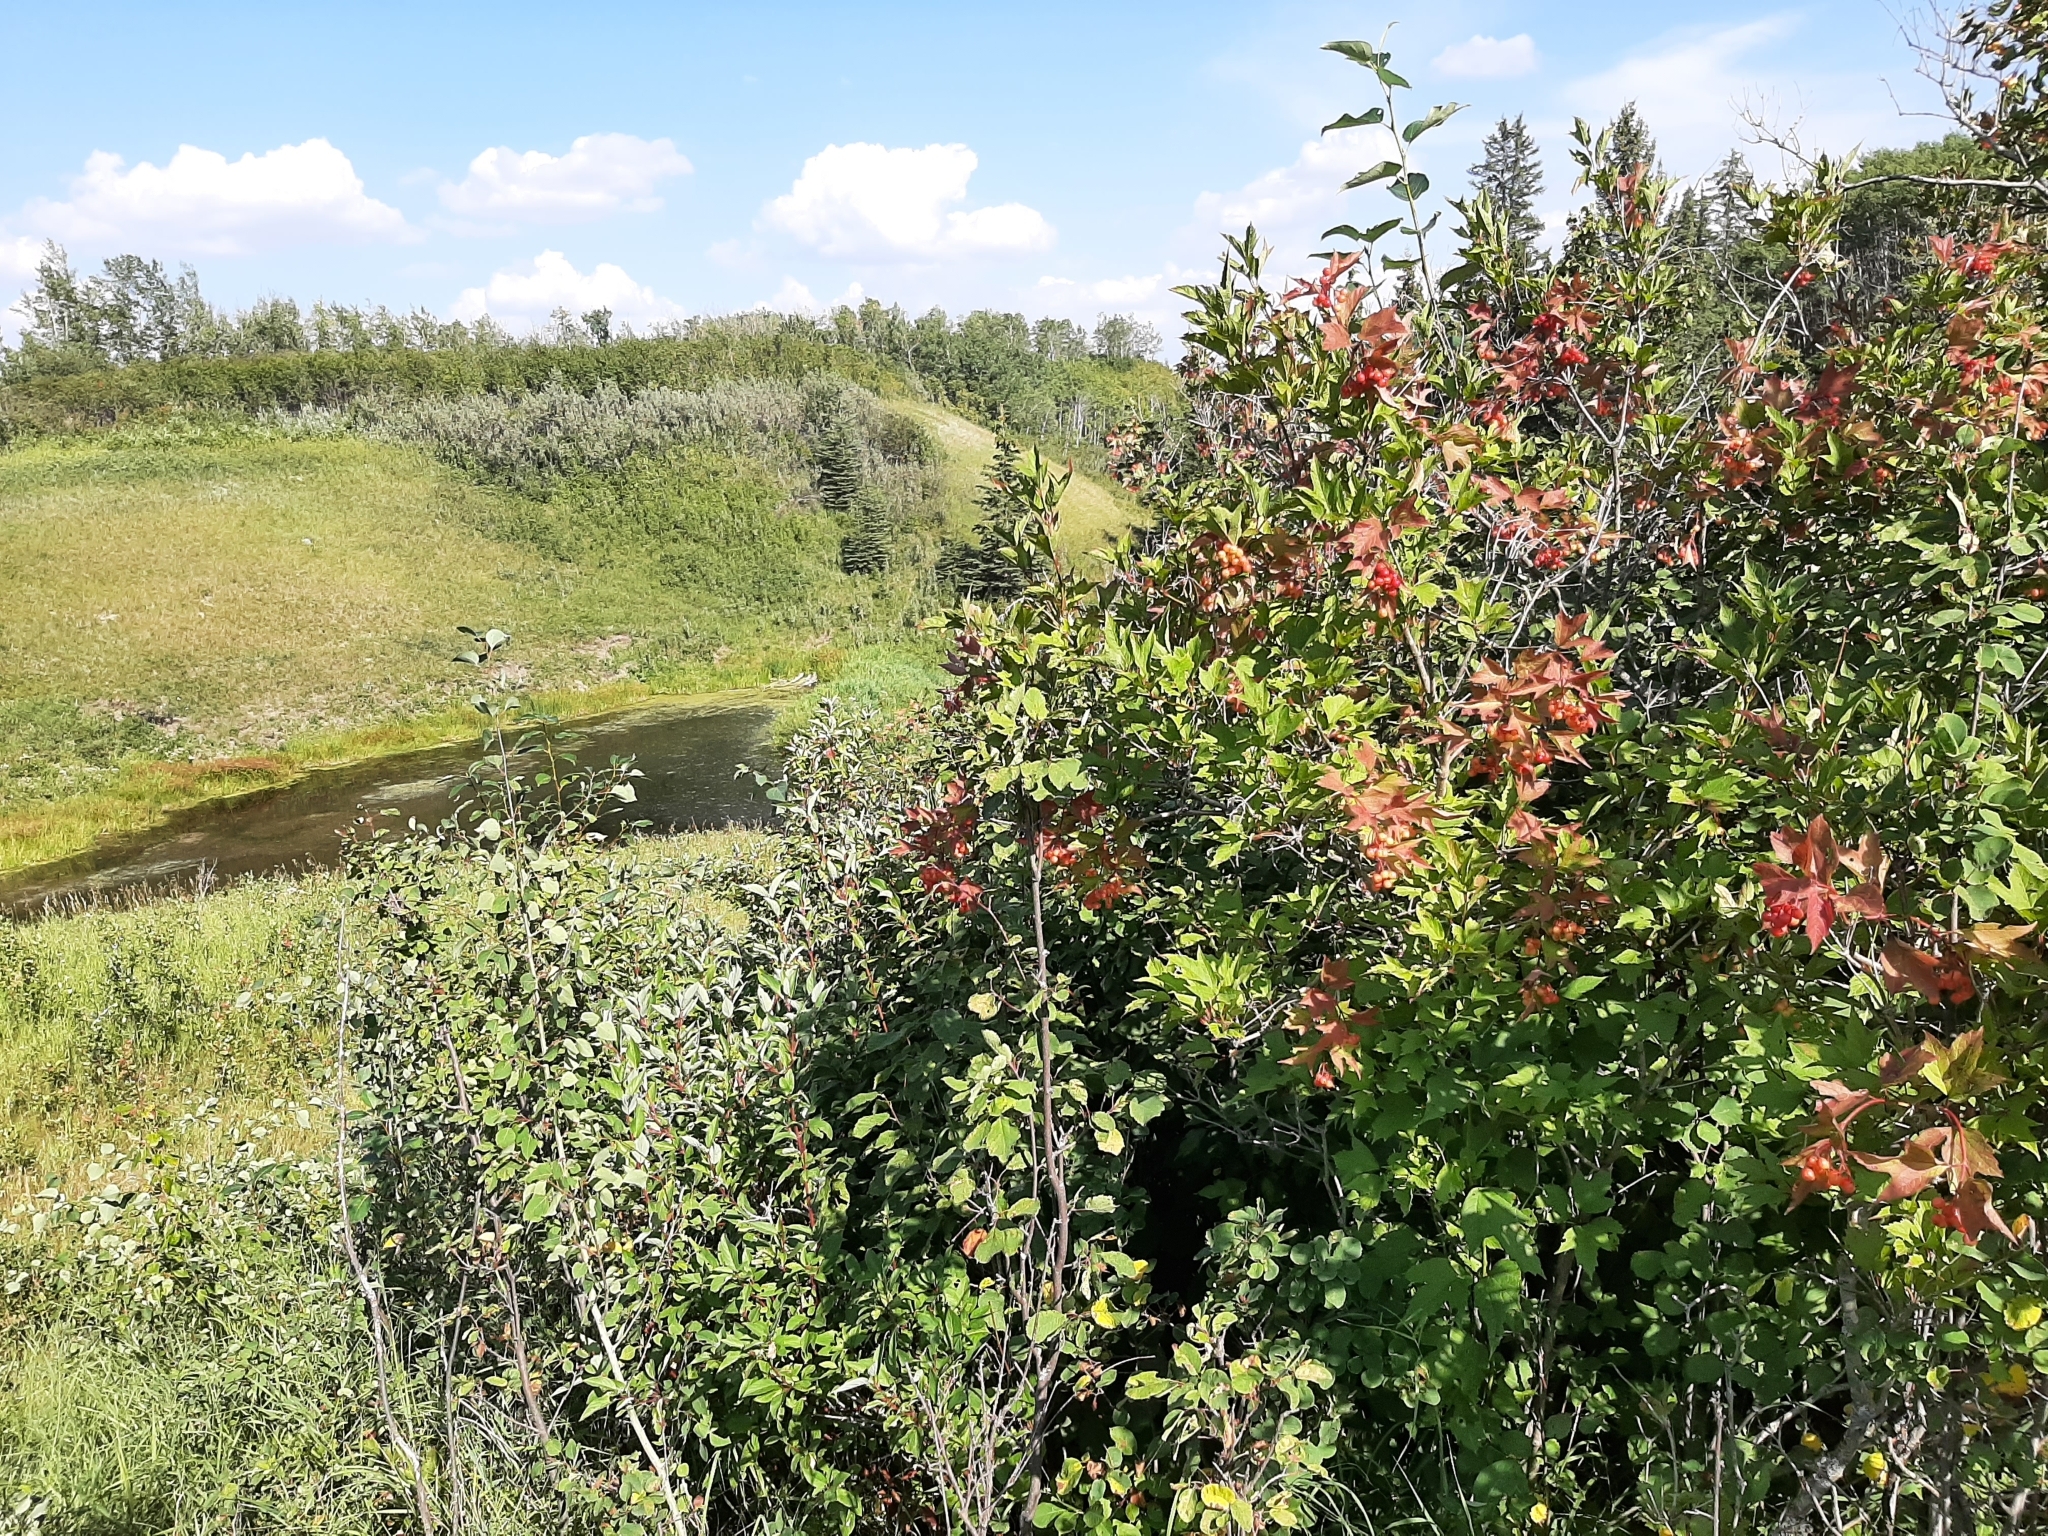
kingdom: Plantae
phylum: Tracheophyta
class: Magnoliopsida
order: Dipsacales
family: Viburnaceae
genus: Viburnum
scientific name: Viburnum trilobum
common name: American cranberrybush
